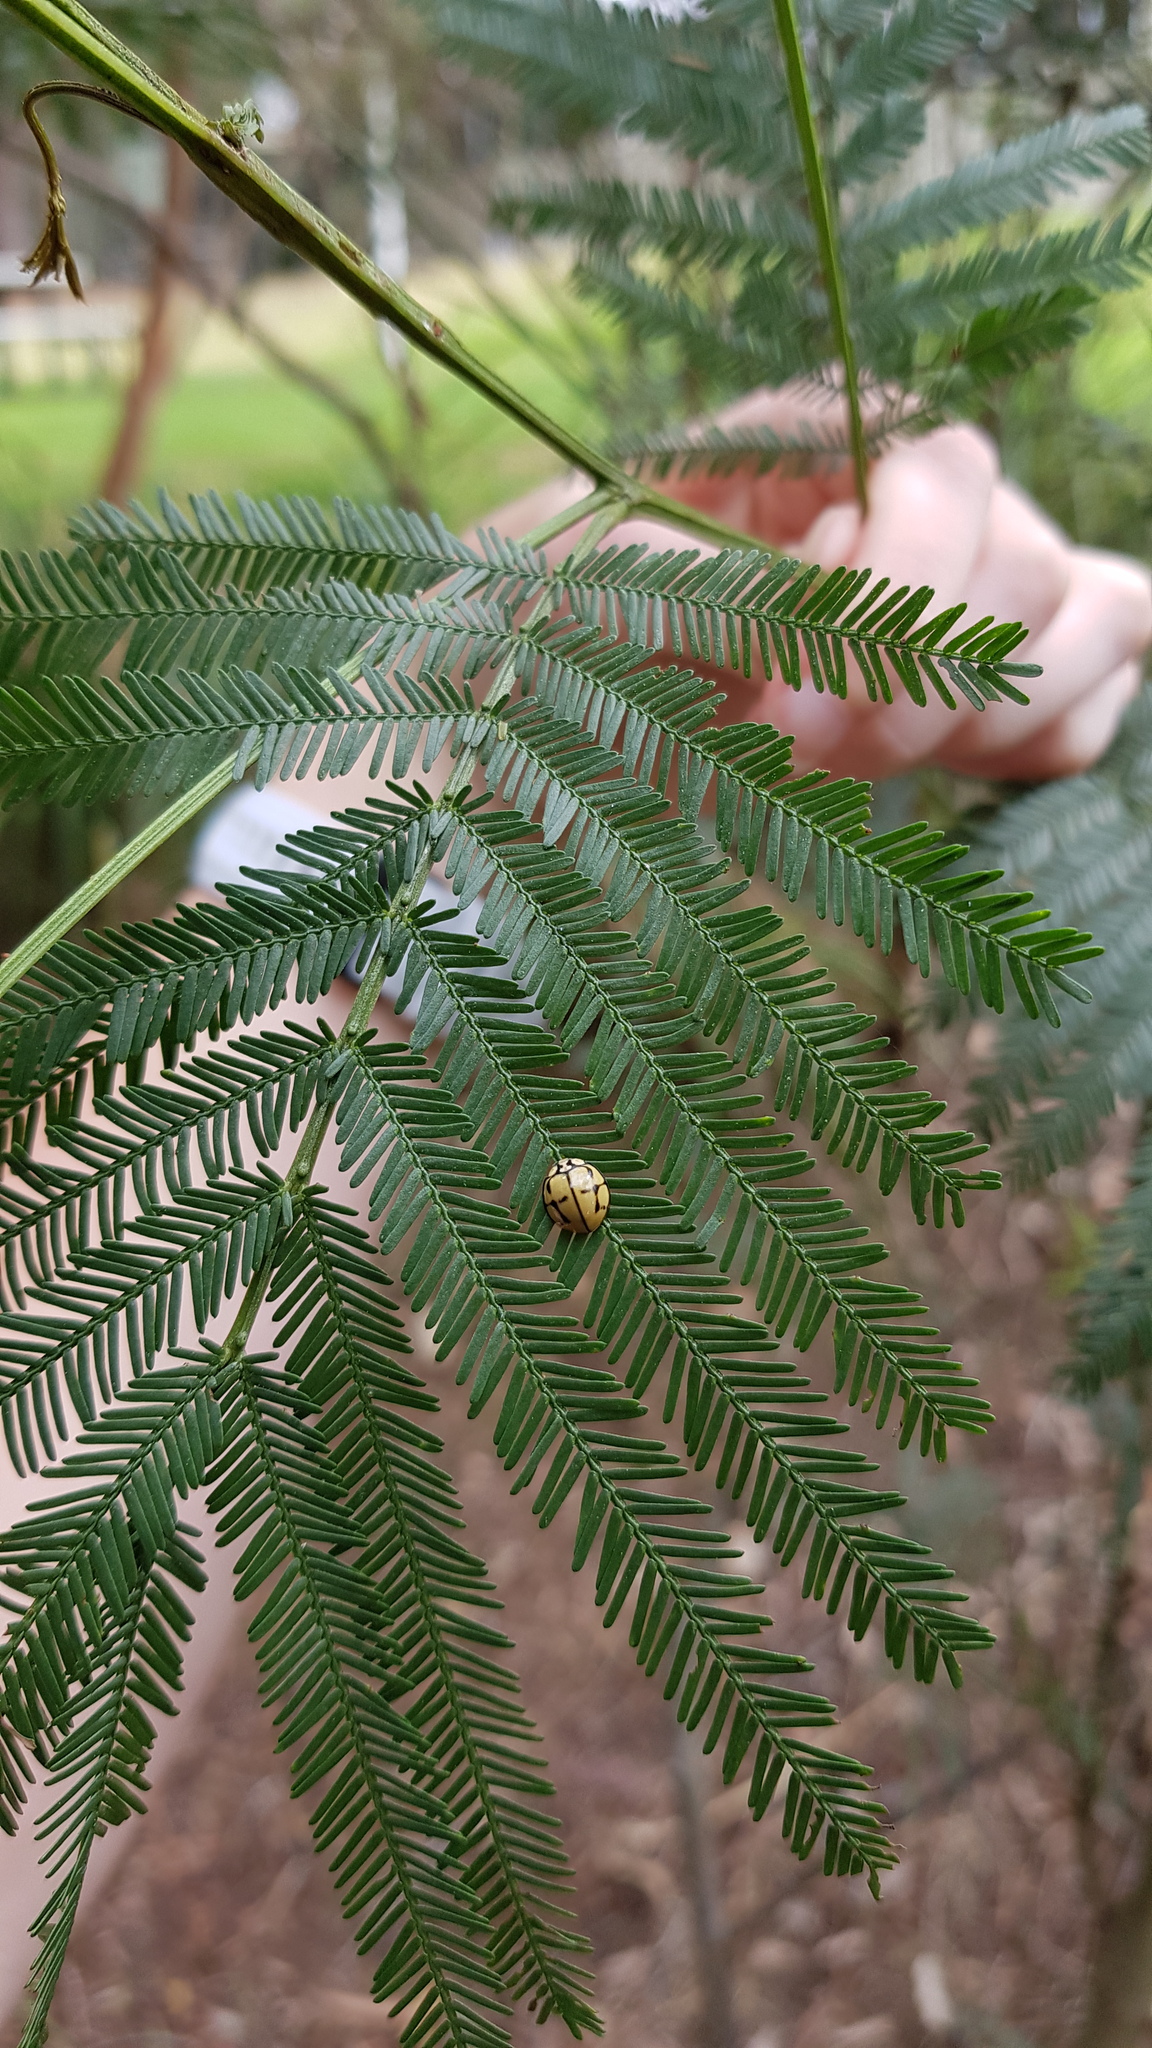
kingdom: Animalia
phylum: Arthropoda
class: Insecta
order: Coleoptera
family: Coccinellidae
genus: Harmonia
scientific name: Harmonia
